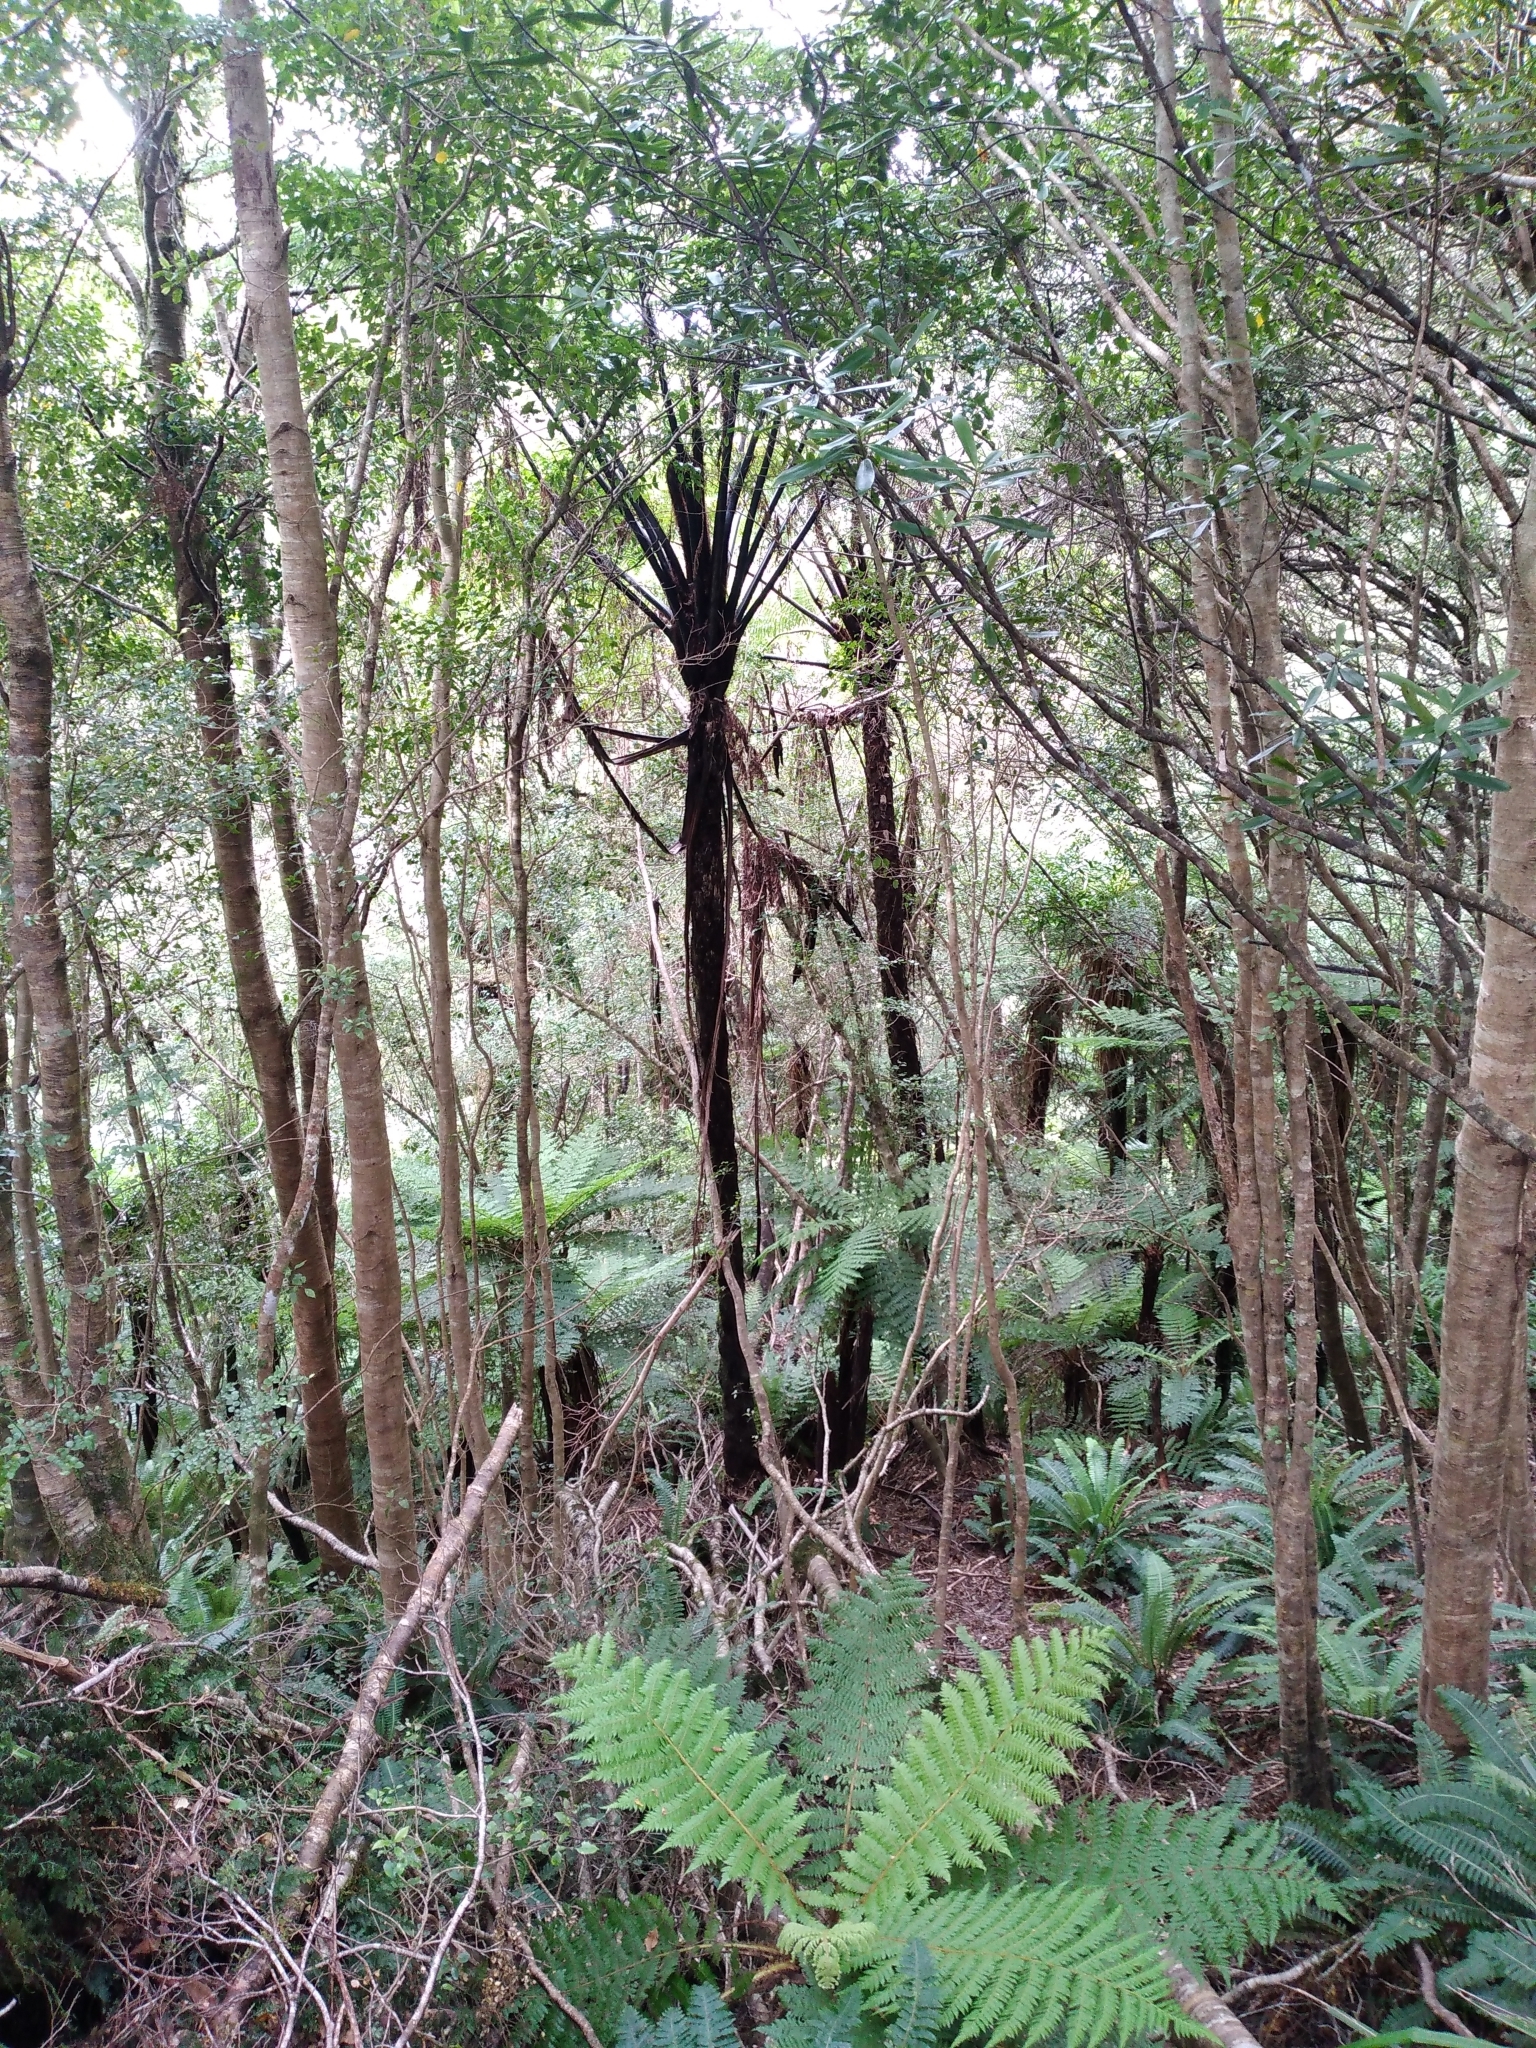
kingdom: Plantae
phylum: Tracheophyta
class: Polypodiopsida
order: Cyatheales
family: Cyatheaceae
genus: Sphaeropteris
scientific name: Sphaeropteris medullaris
